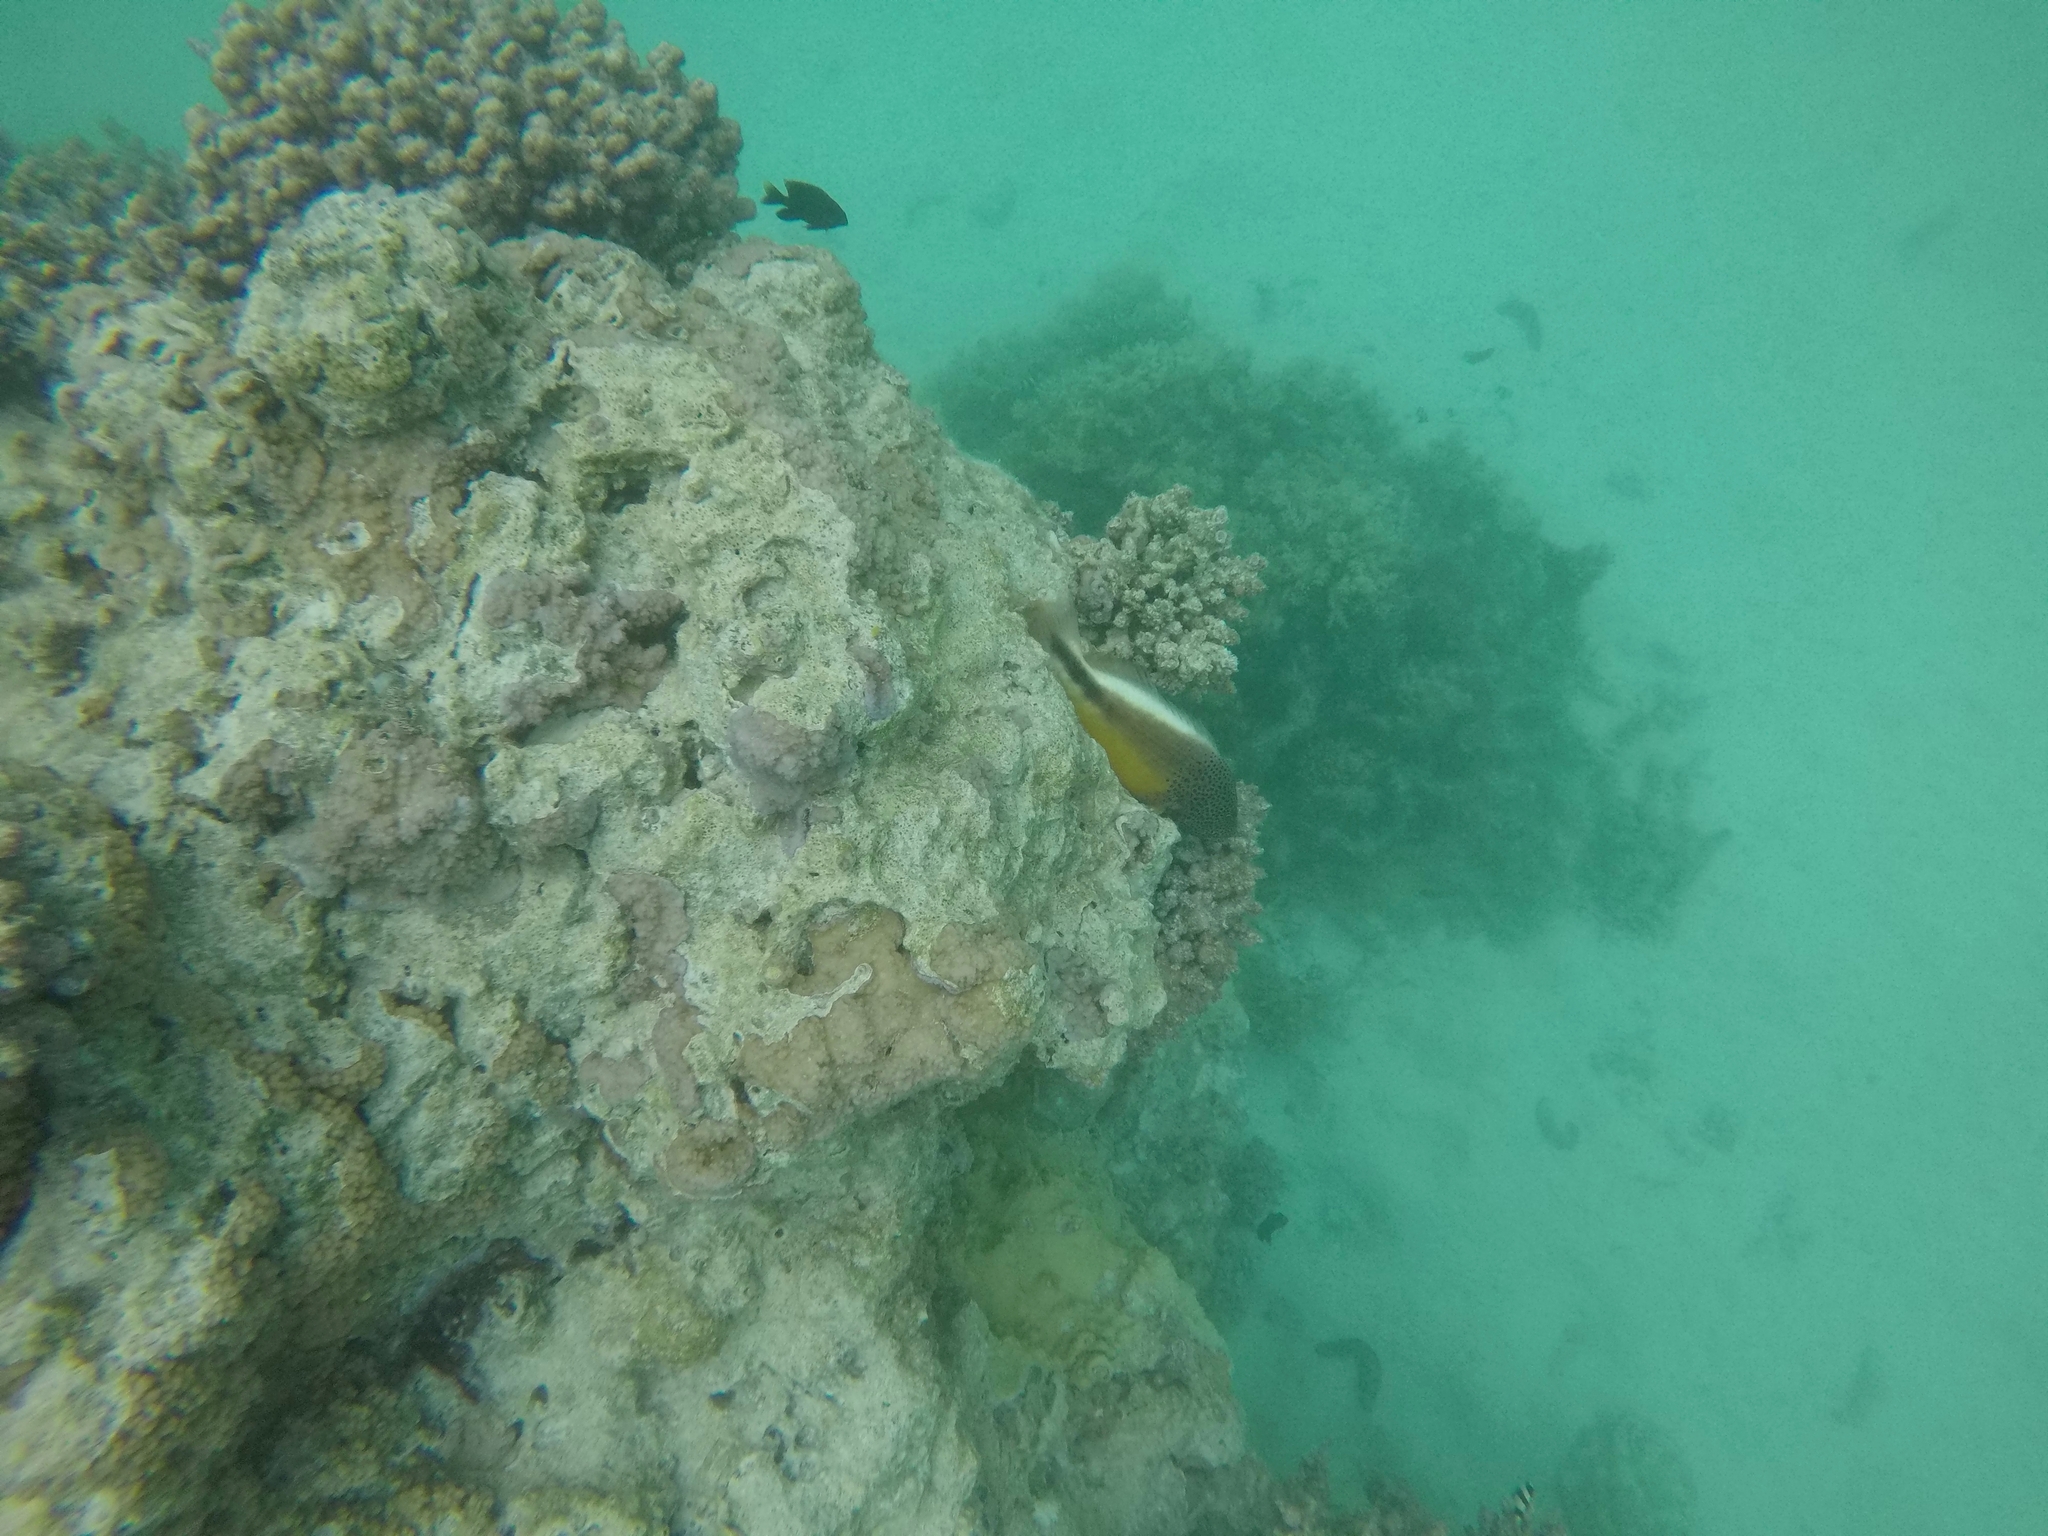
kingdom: Animalia
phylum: Chordata
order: Perciformes
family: Cirrhitidae
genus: Paracirrhites
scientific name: Paracirrhites forsteri
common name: Freckled hawkfish
